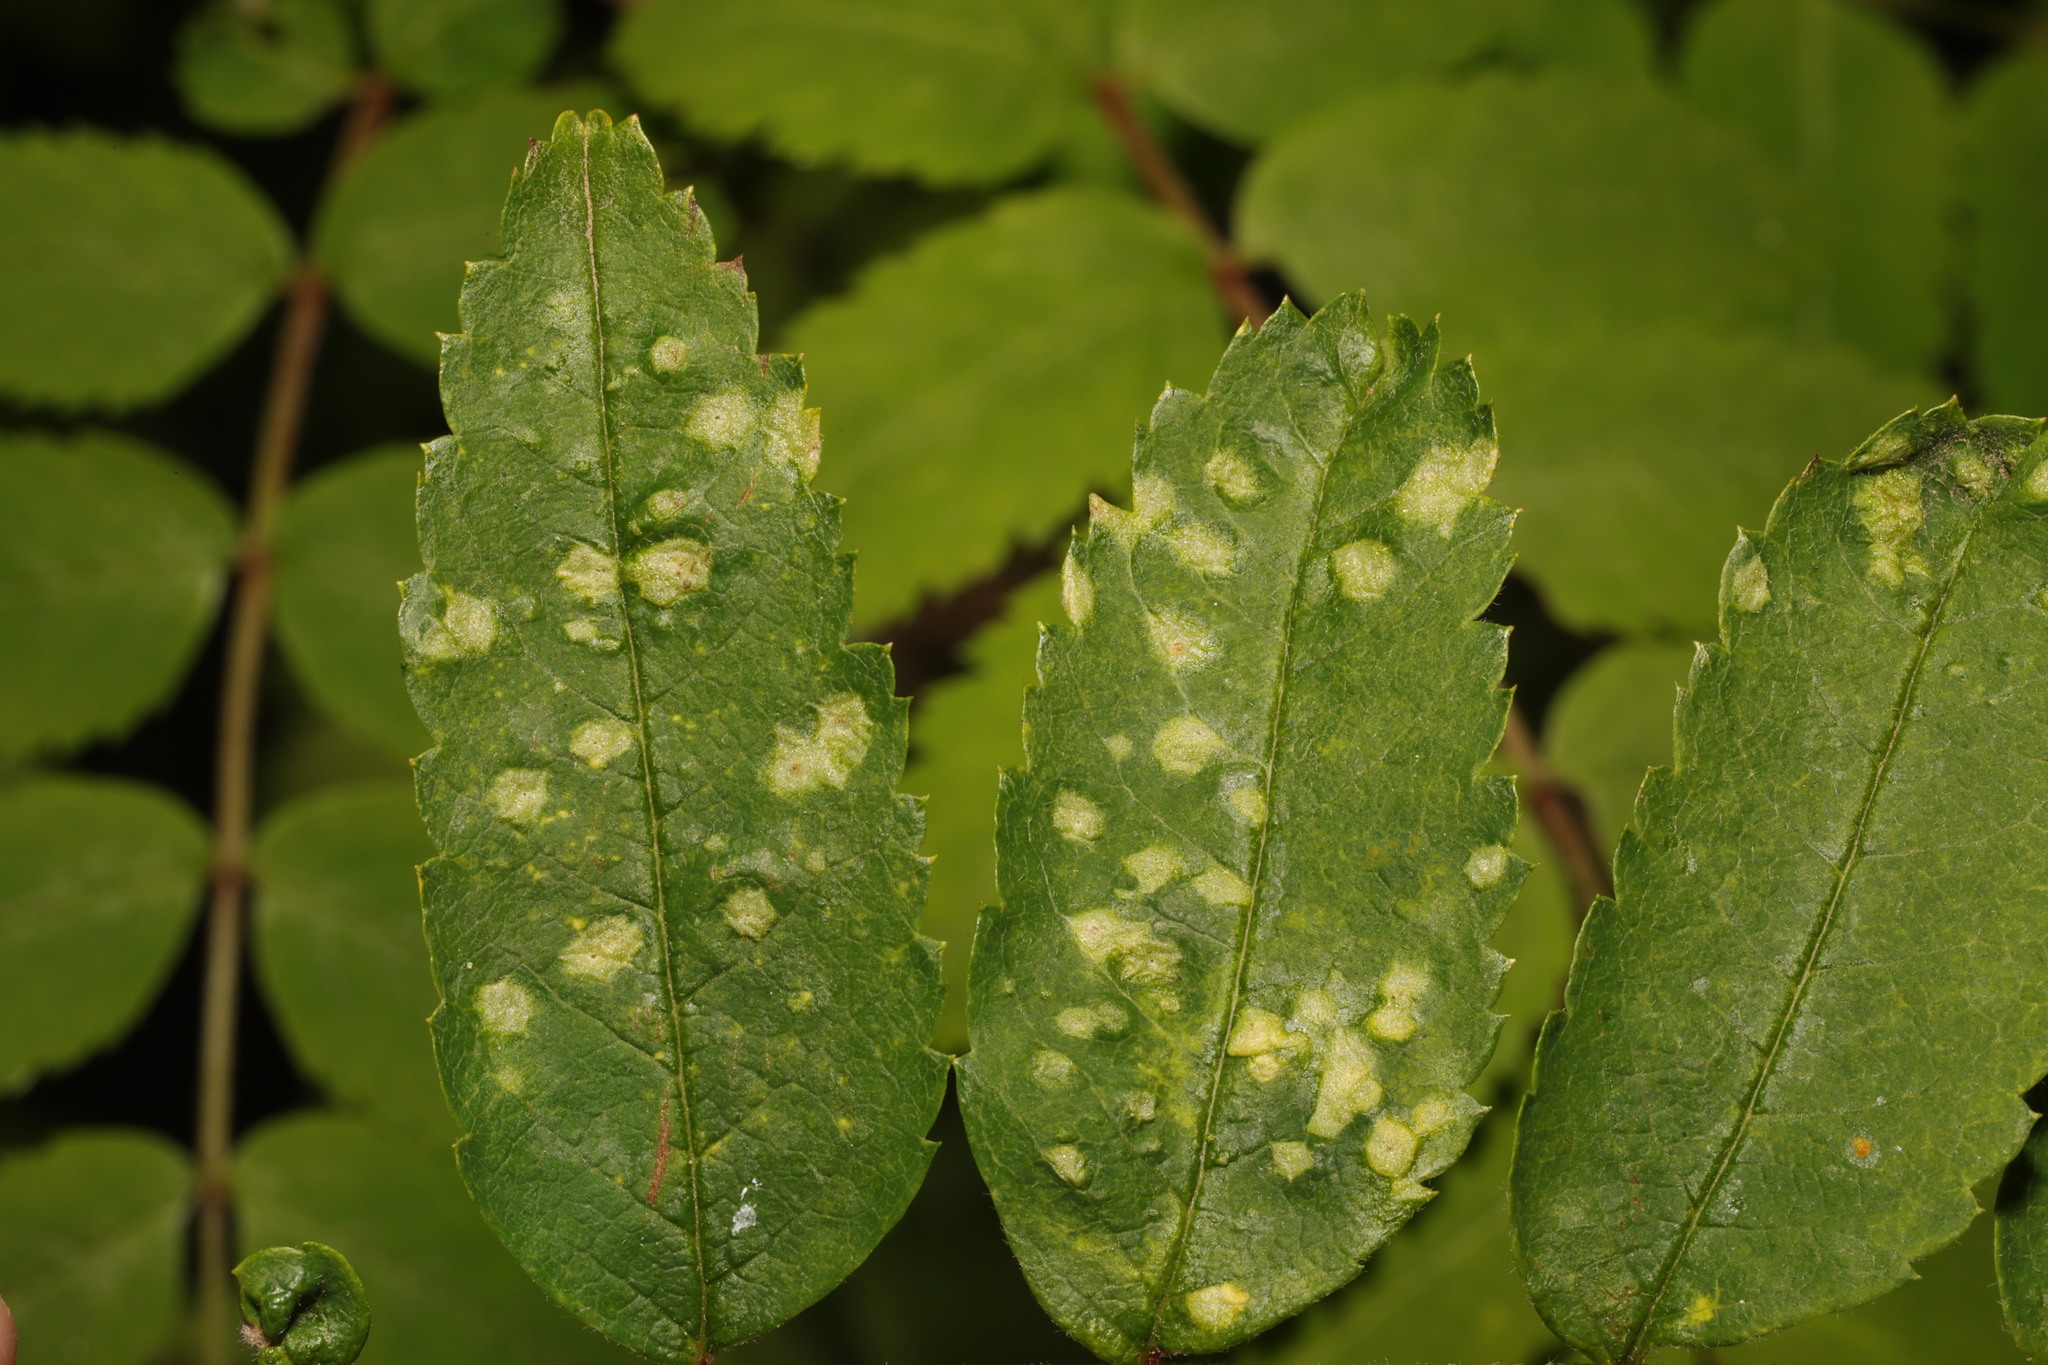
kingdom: Animalia
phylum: Arthropoda
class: Arachnida
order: Trombidiformes
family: Eriophyidae
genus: Eriophyes
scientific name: Eriophyes pyri
